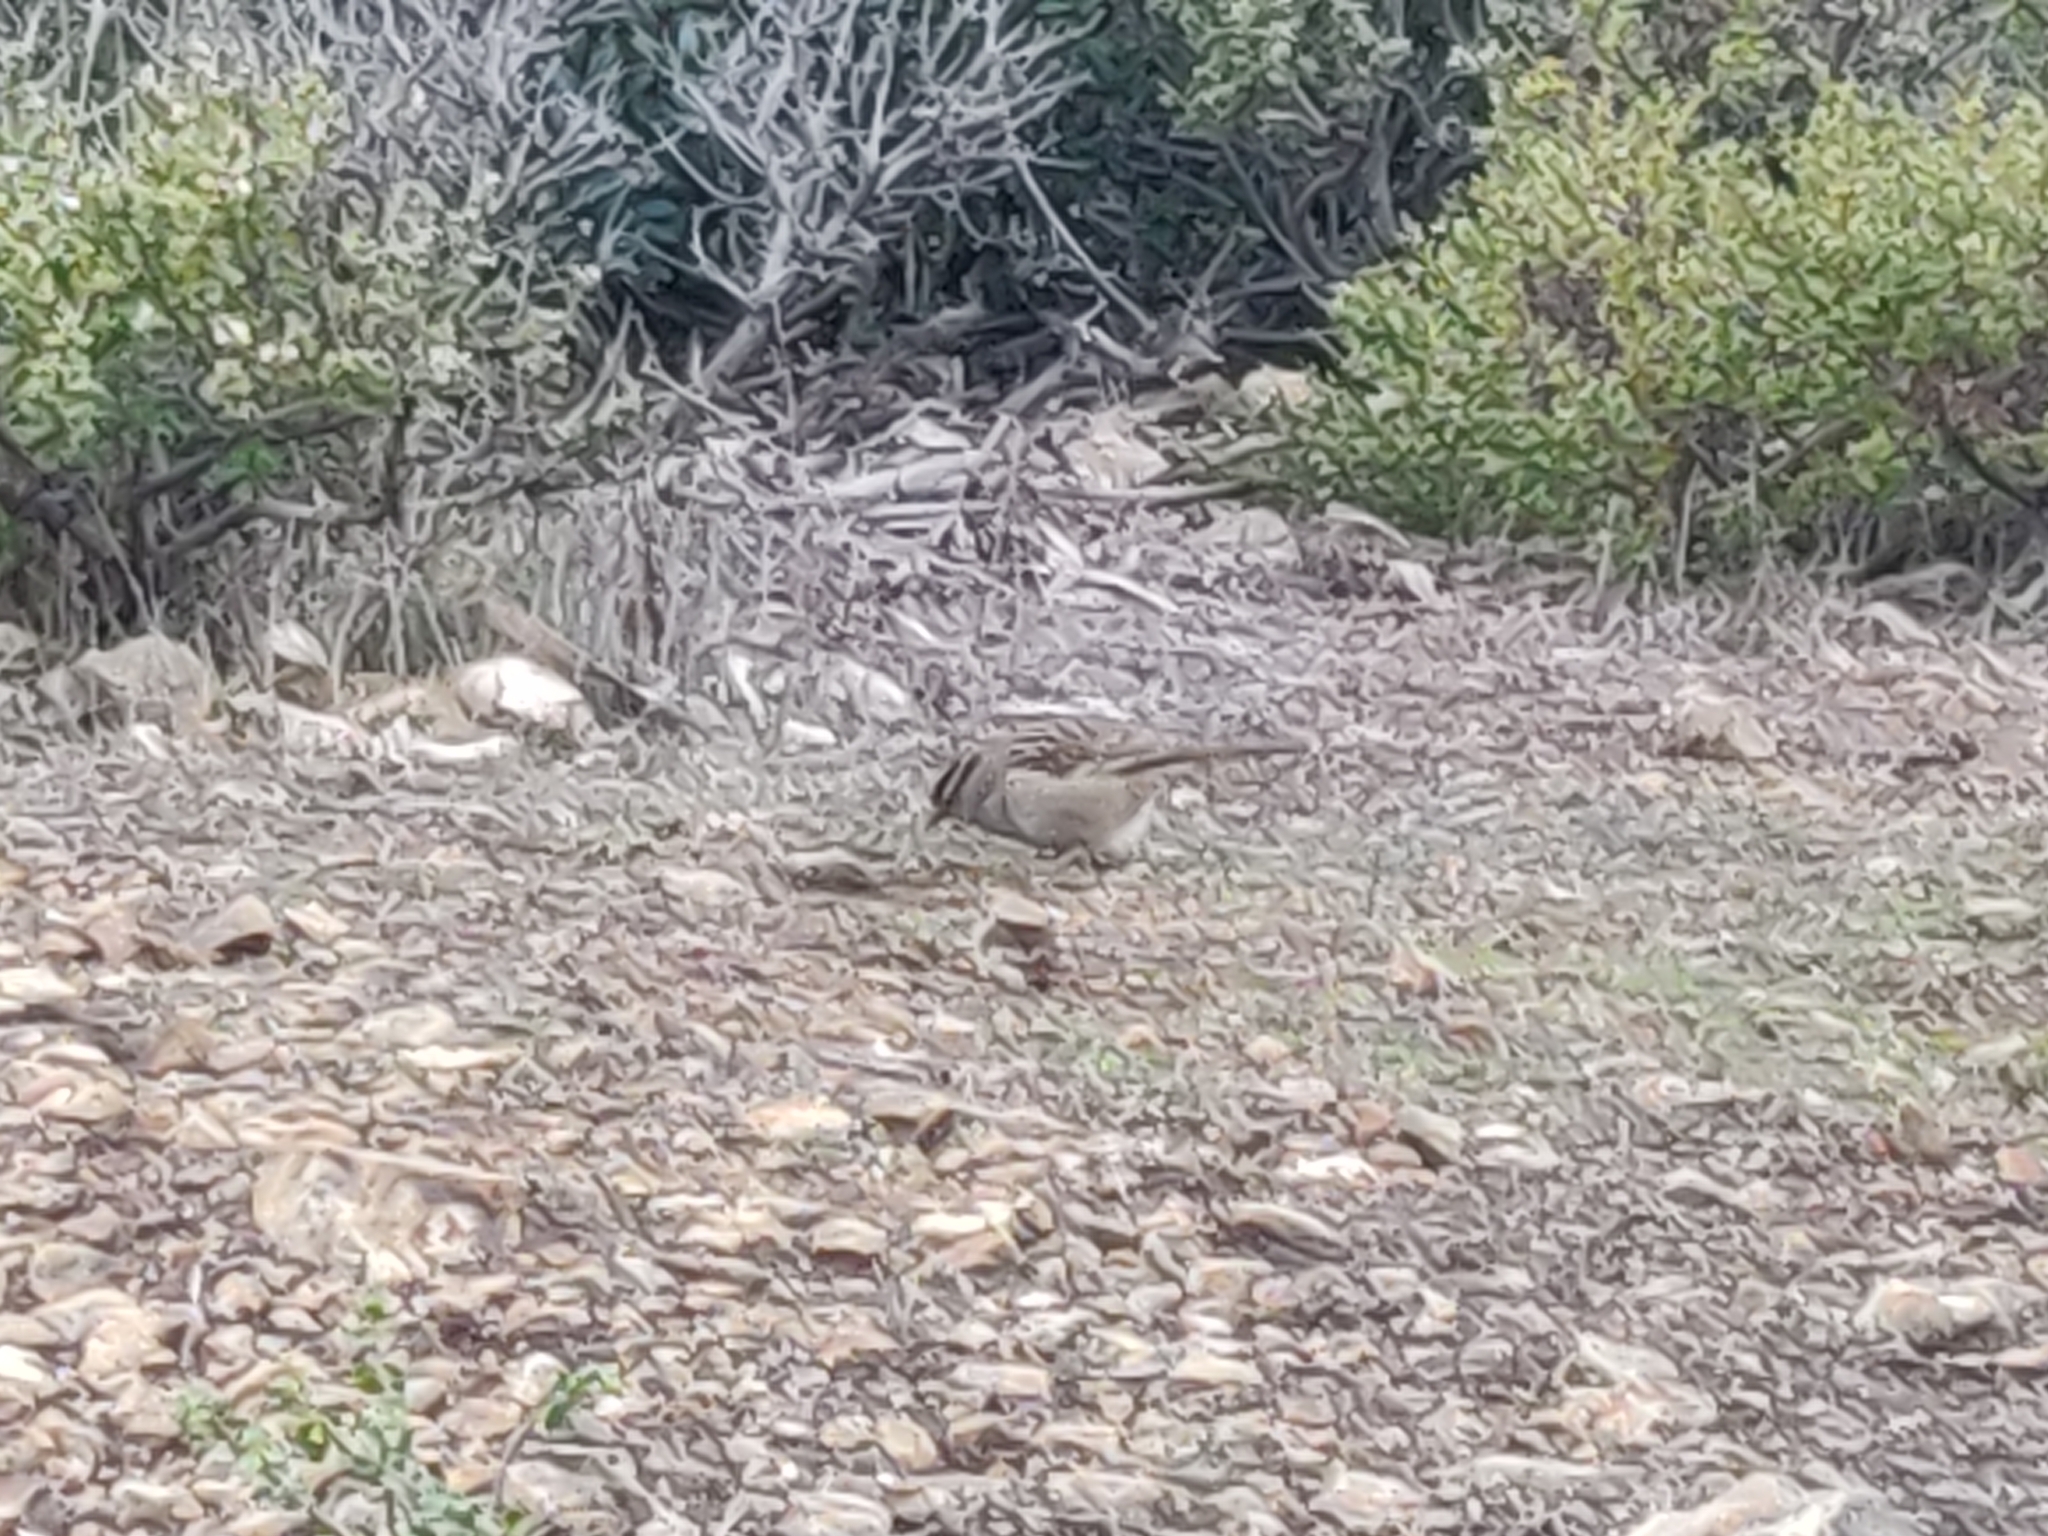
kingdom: Animalia
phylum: Chordata
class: Aves
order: Passeriformes
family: Passerellidae
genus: Zonotrichia
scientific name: Zonotrichia leucophrys
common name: White-crowned sparrow
